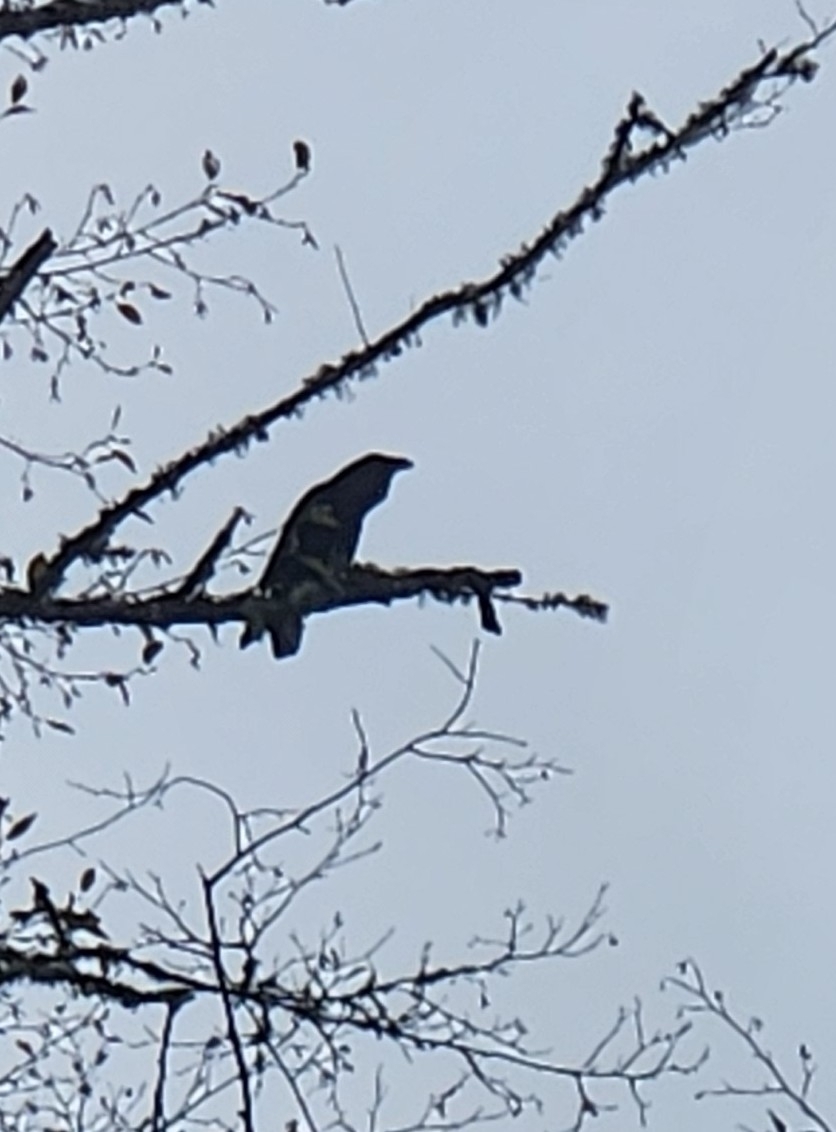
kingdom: Animalia
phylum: Chordata
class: Aves
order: Passeriformes
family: Corvidae
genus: Corvus
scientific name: Corvus corax
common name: Common raven
